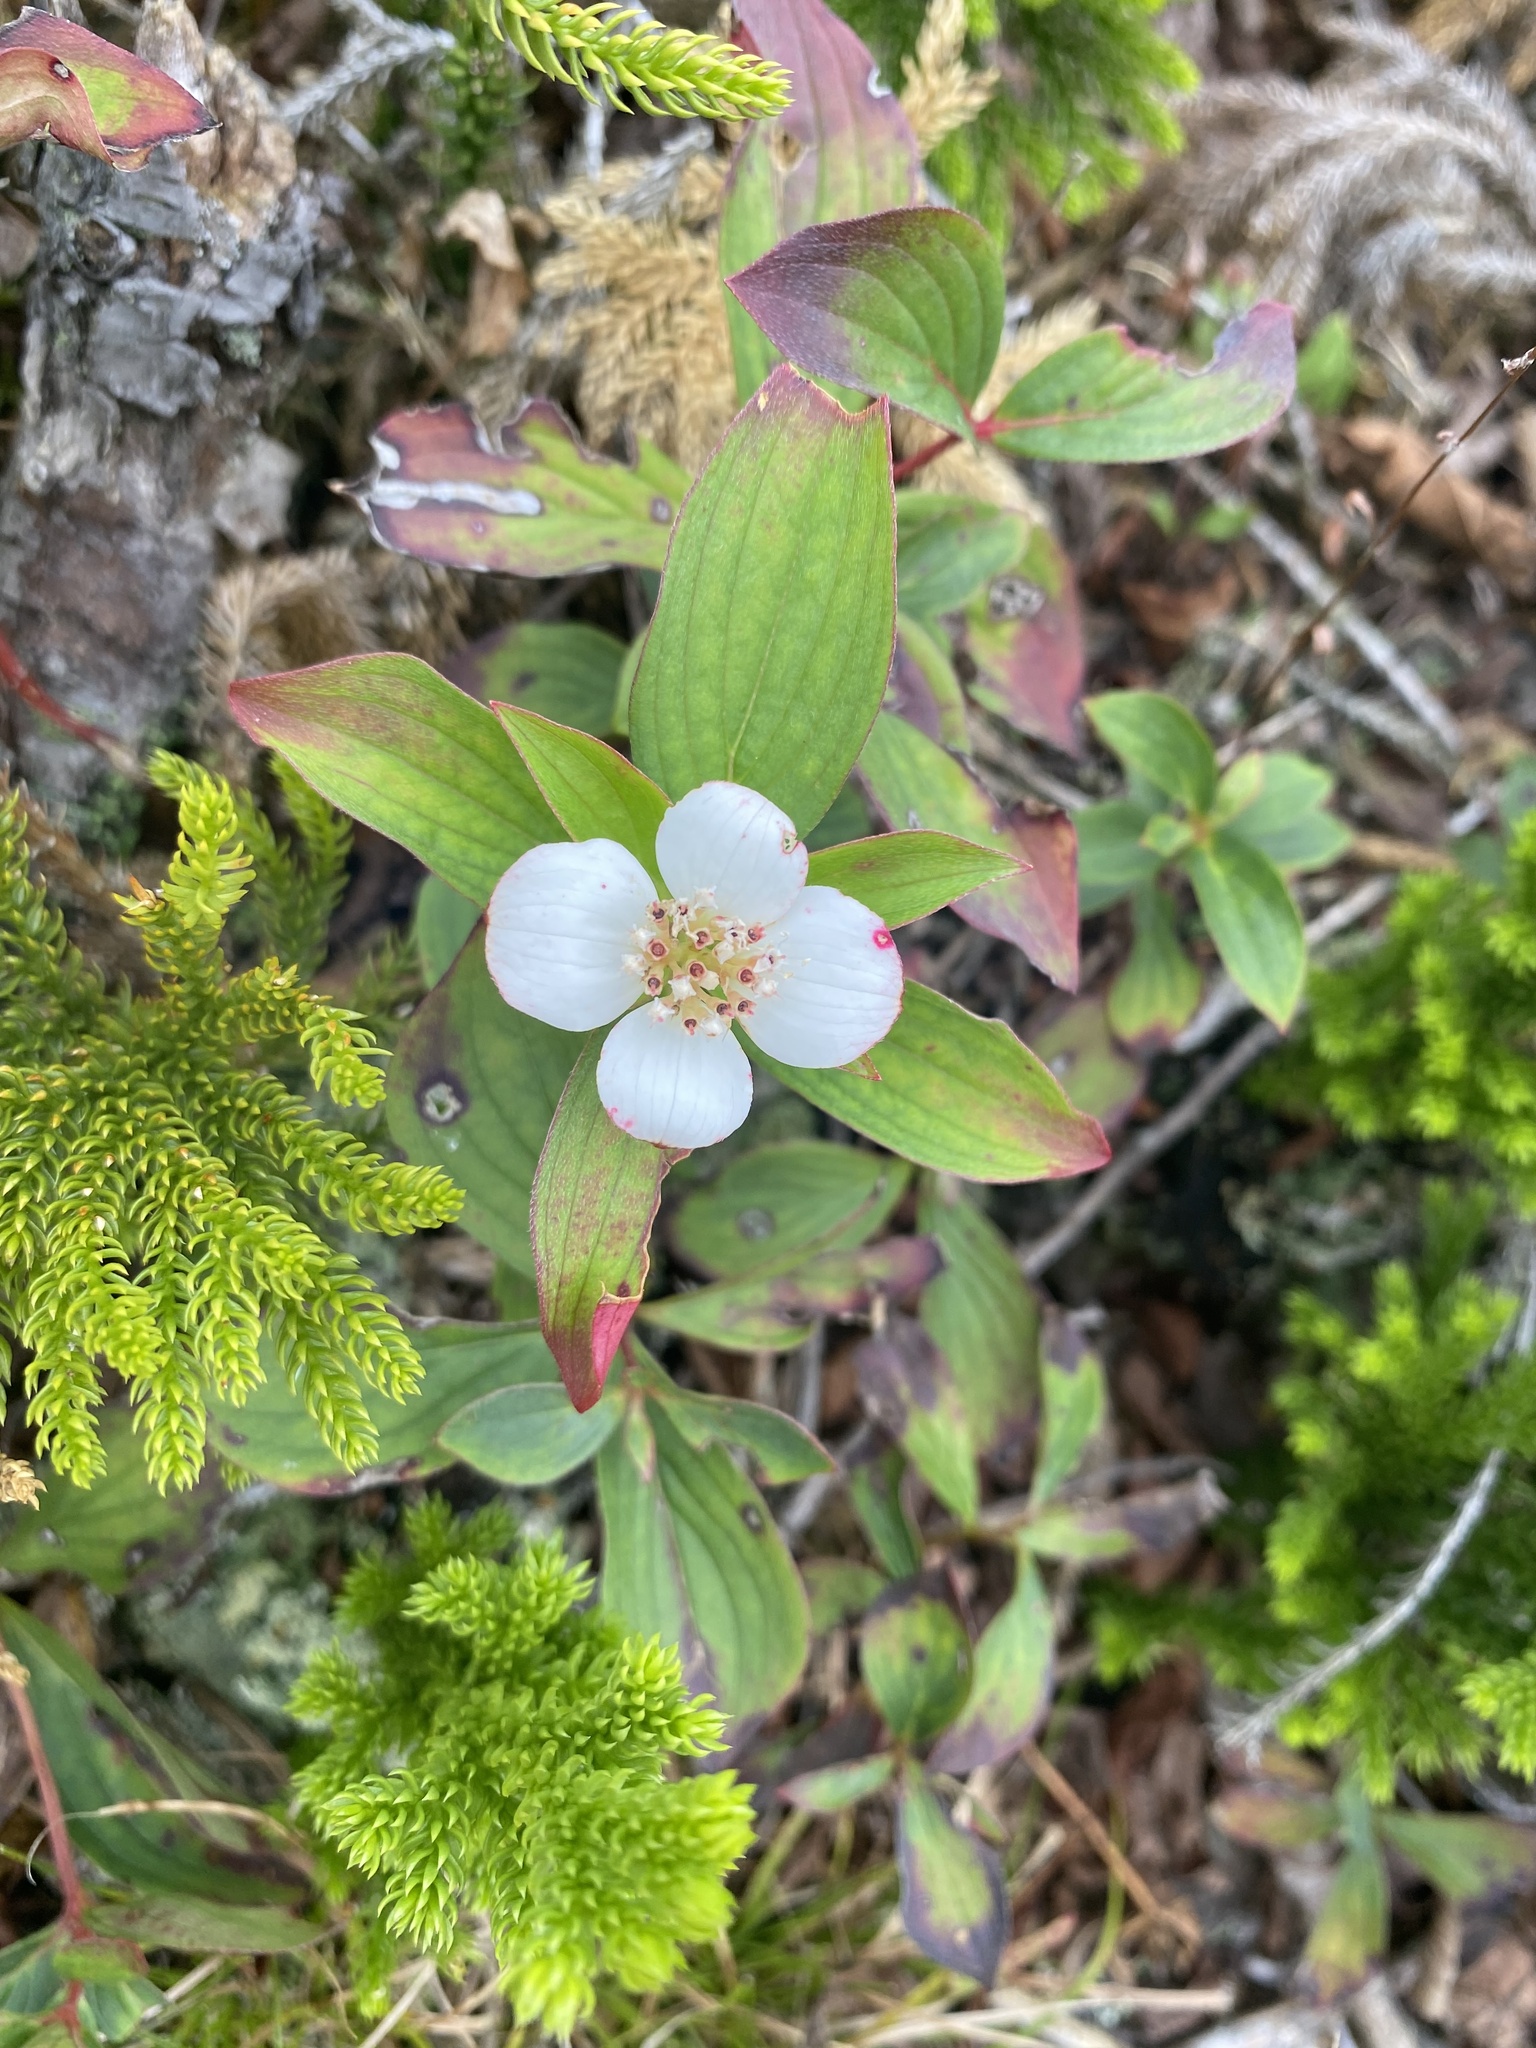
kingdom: Plantae
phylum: Tracheophyta
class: Magnoliopsida
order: Cornales
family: Cornaceae
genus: Cornus
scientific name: Cornus canadensis
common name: Creeping dogwood
